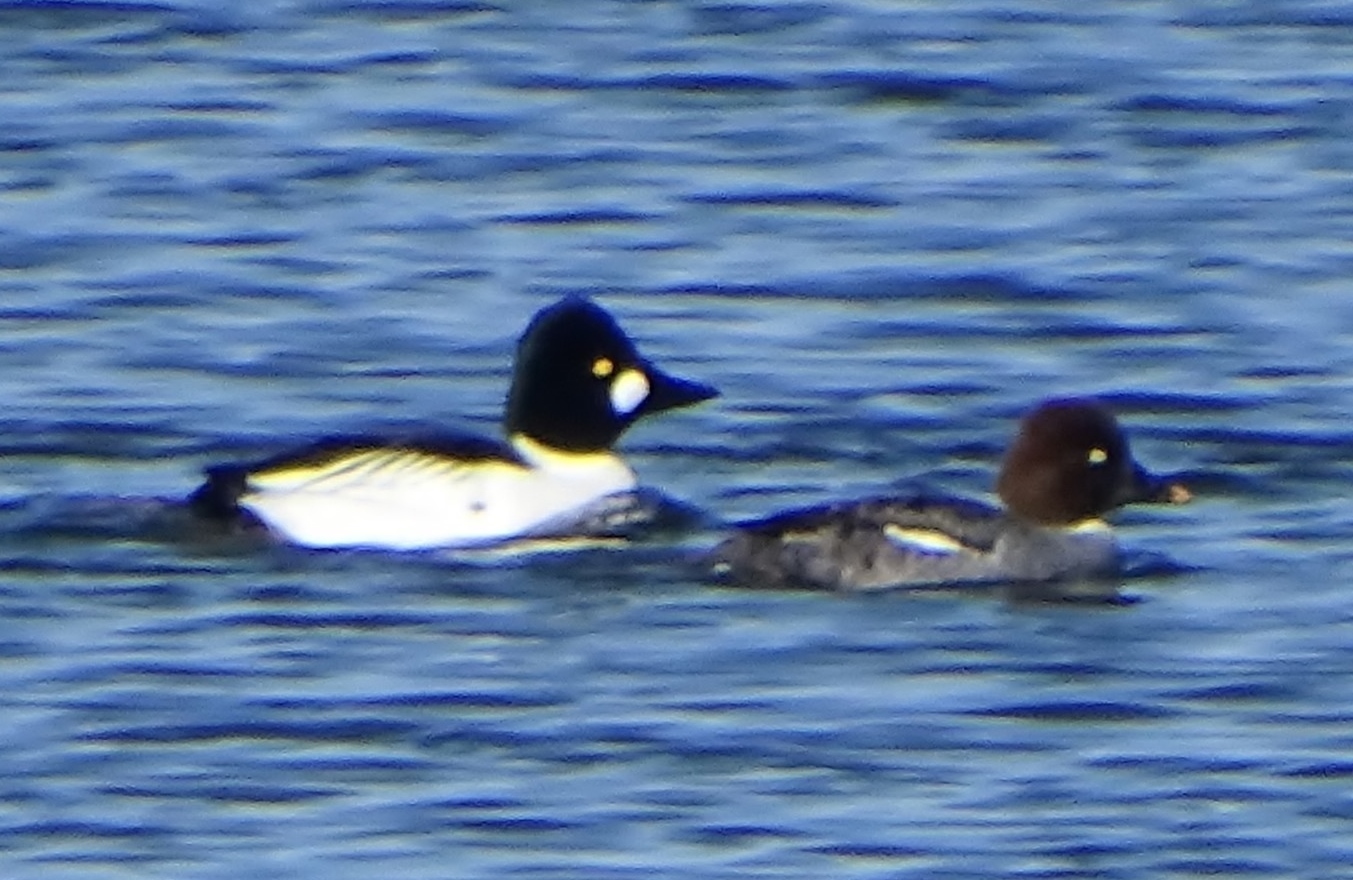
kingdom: Animalia
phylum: Chordata
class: Aves
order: Anseriformes
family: Anatidae
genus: Bucephala
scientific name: Bucephala clangula
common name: Common goldeneye
